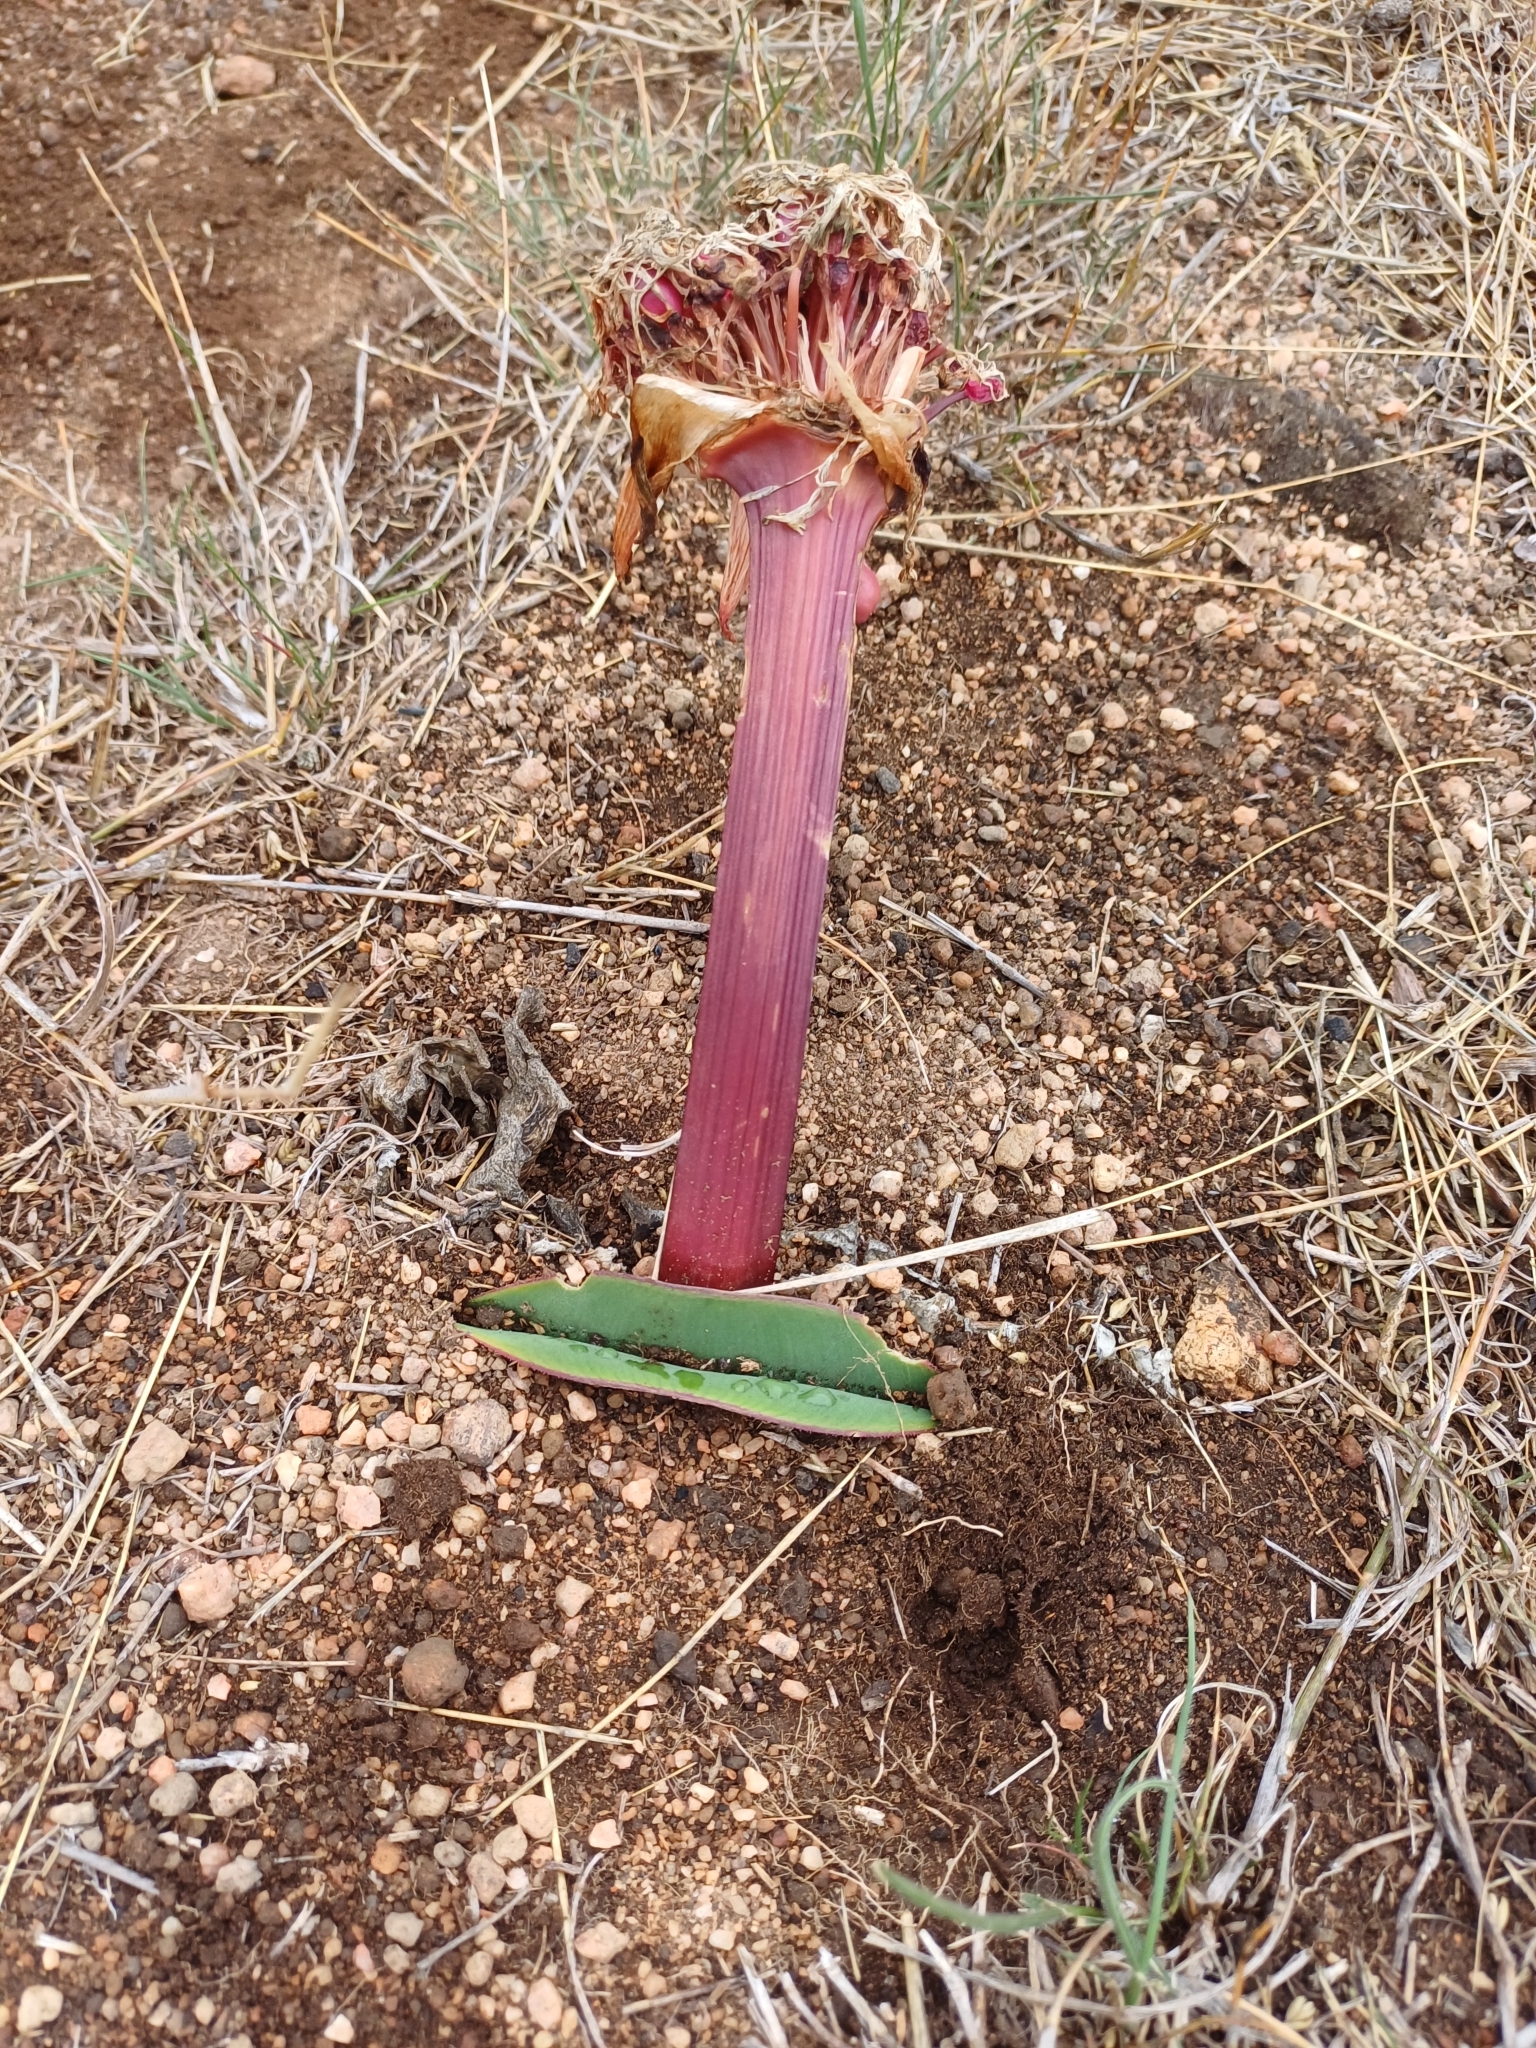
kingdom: Plantae
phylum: Tracheophyta
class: Liliopsida
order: Asparagales
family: Amaryllidaceae
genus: Haemanthus
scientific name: Haemanthus sanguineus
